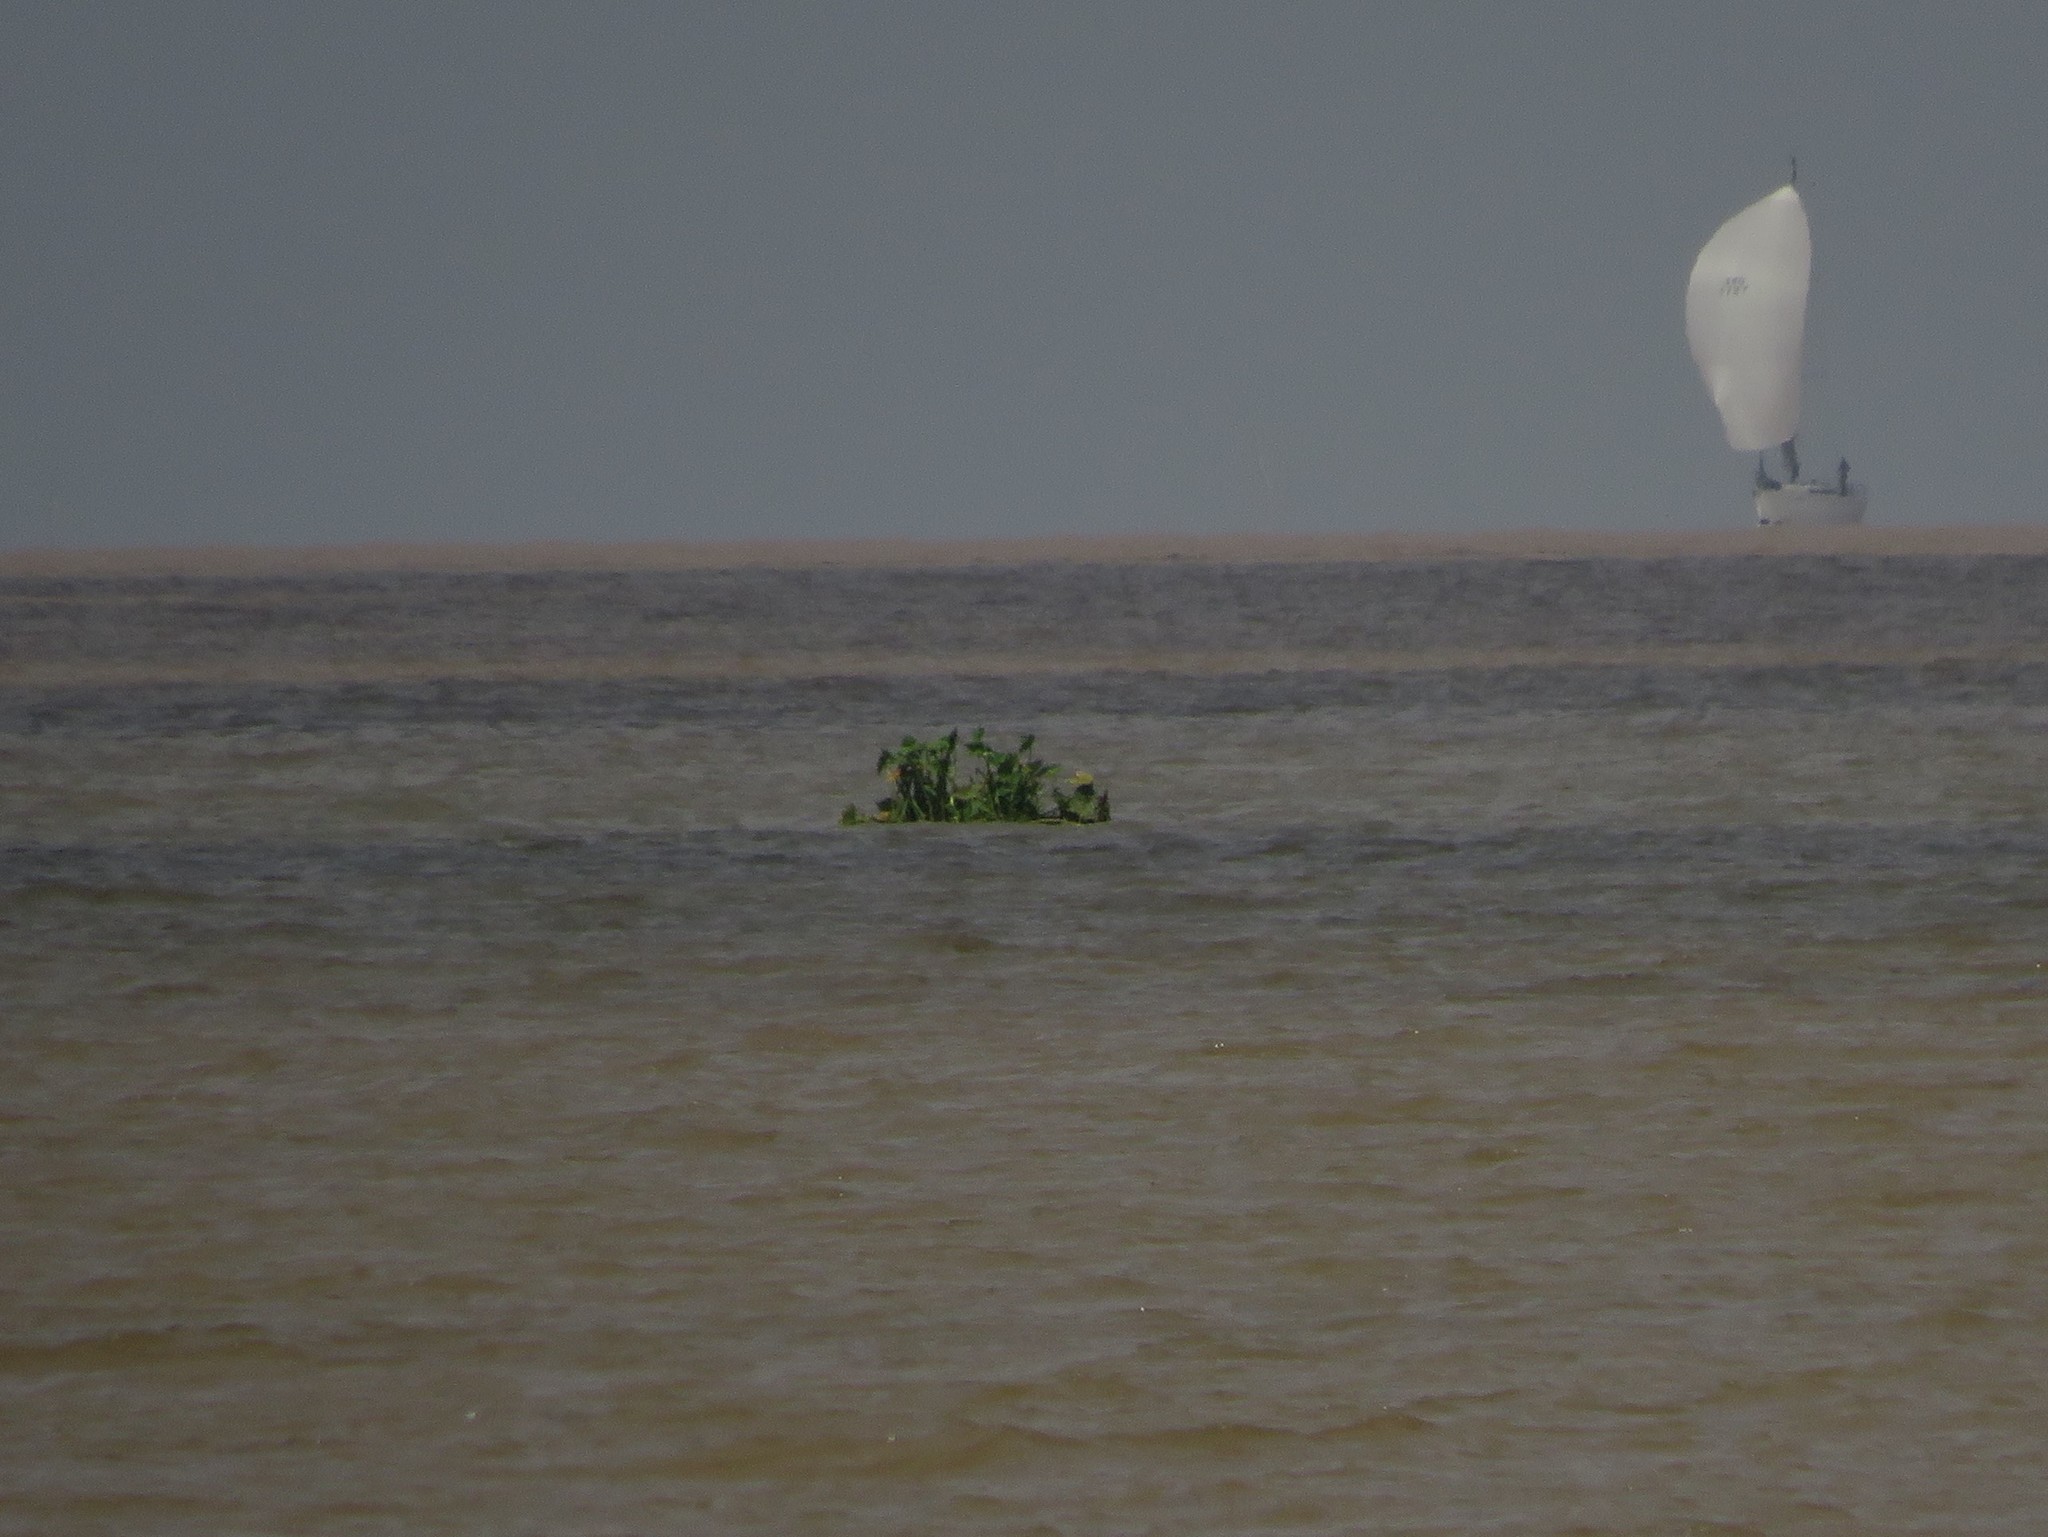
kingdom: Plantae
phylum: Tracheophyta
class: Liliopsida
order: Commelinales
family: Pontederiaceae
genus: Pontederia
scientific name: Pontederia crassipes
